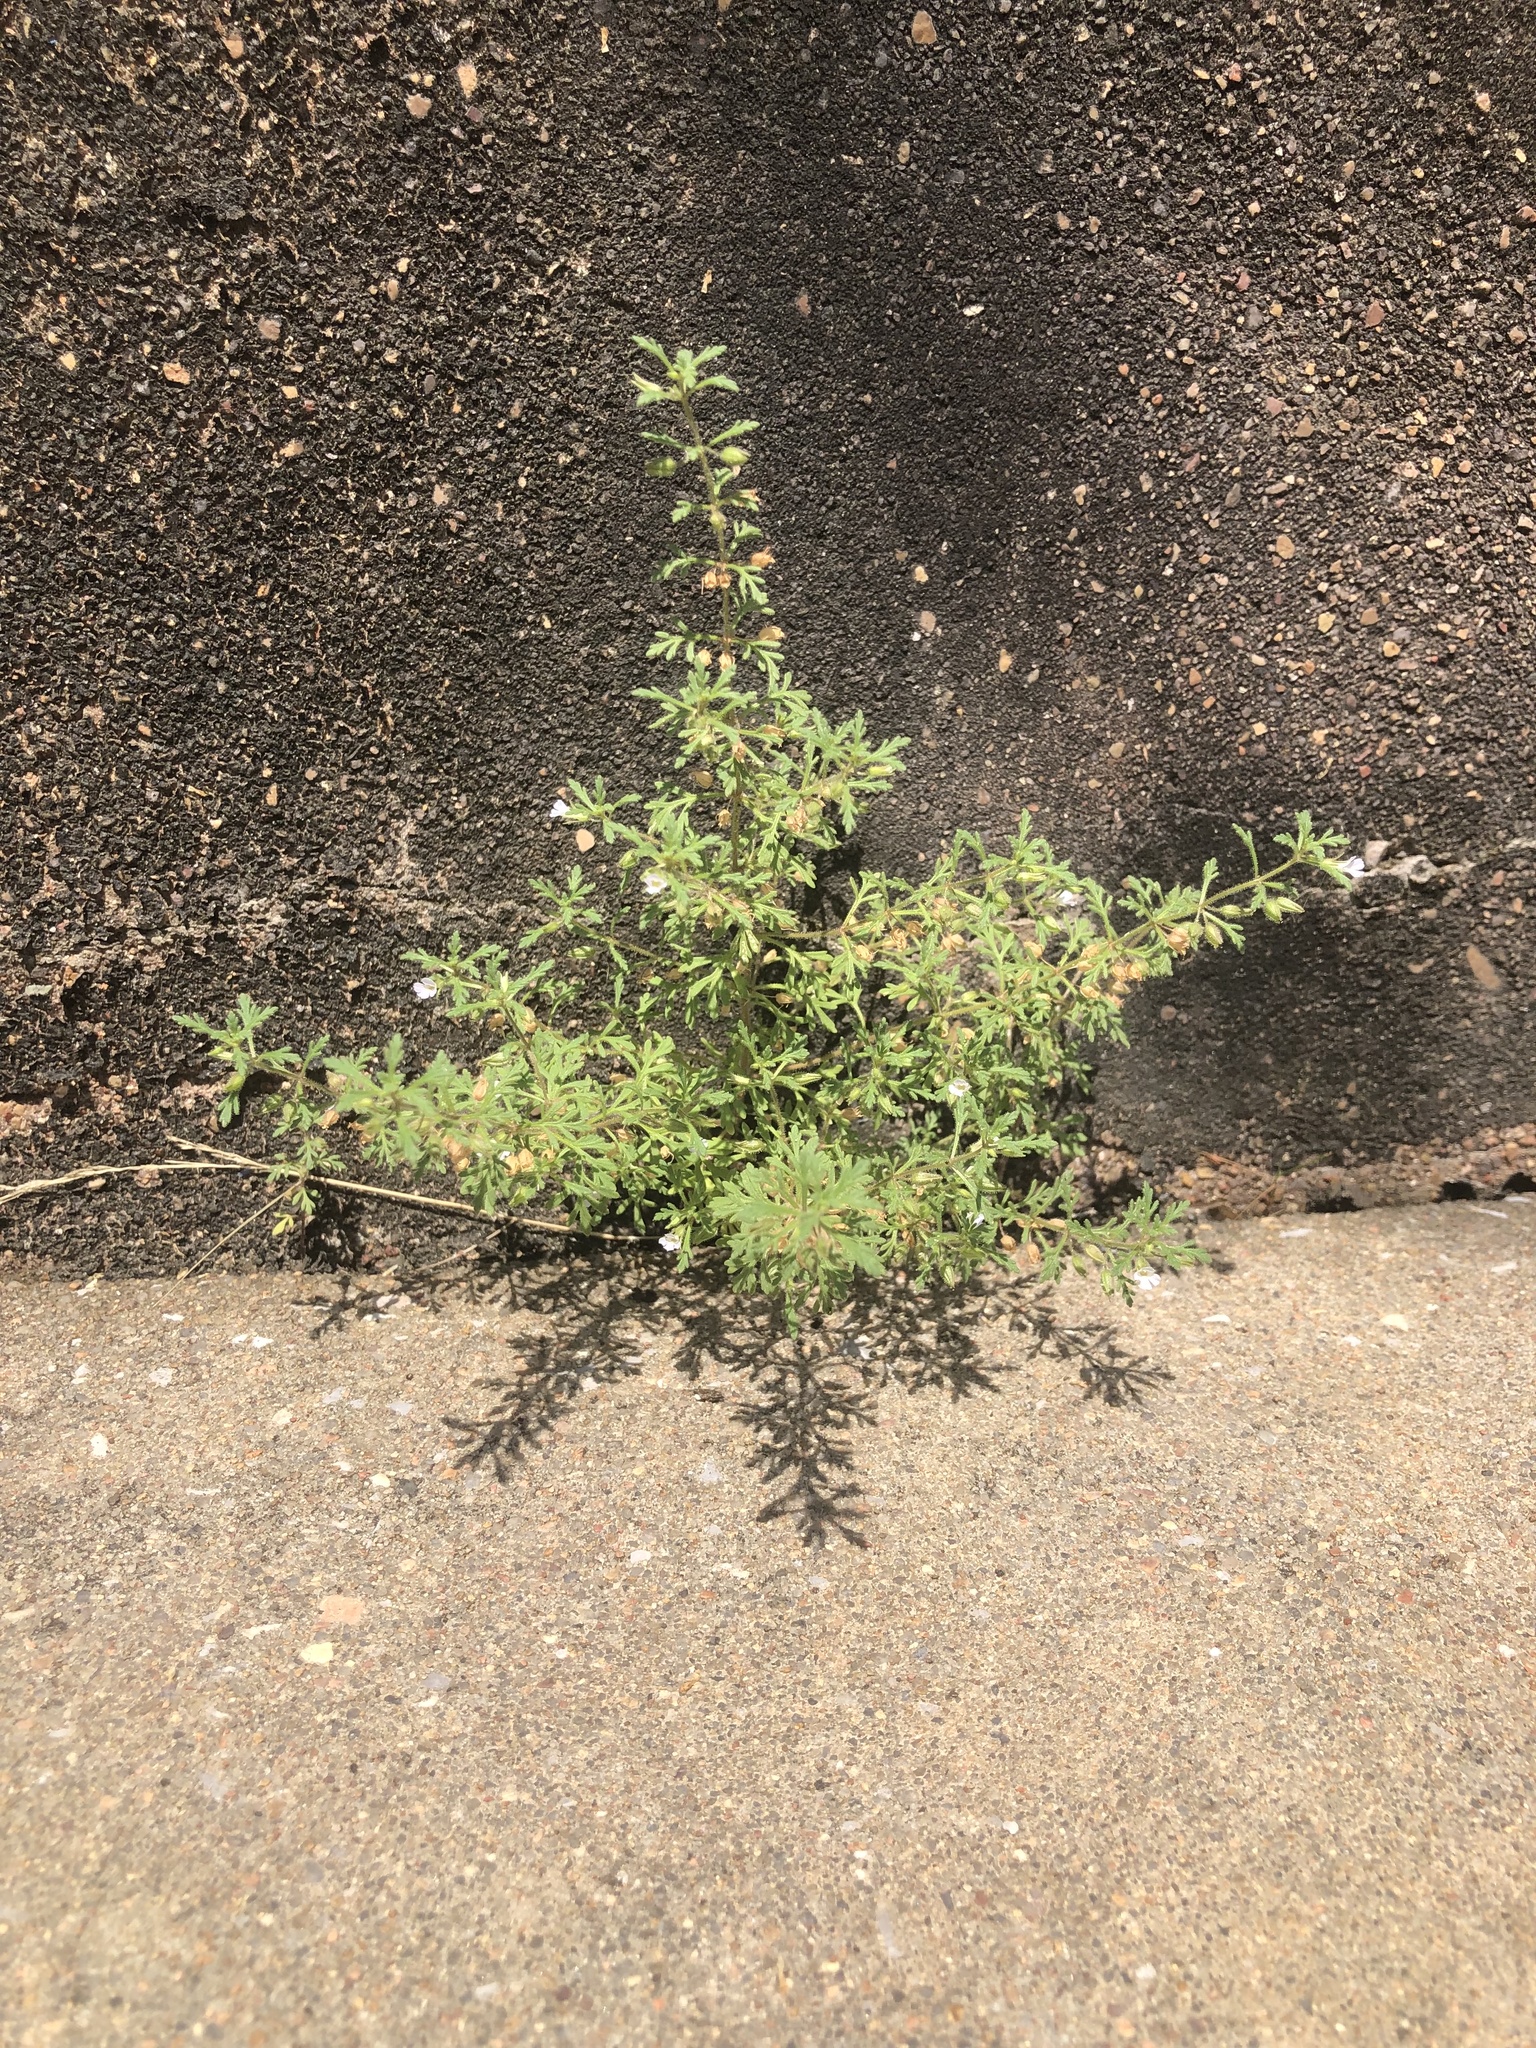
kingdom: Plantae
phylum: Tracheophyta
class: Magnoliopsida
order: Lamiales
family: Plantaginaceae
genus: Leucospora
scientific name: Leucospora multifida
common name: Narrow-leaf paleseed
